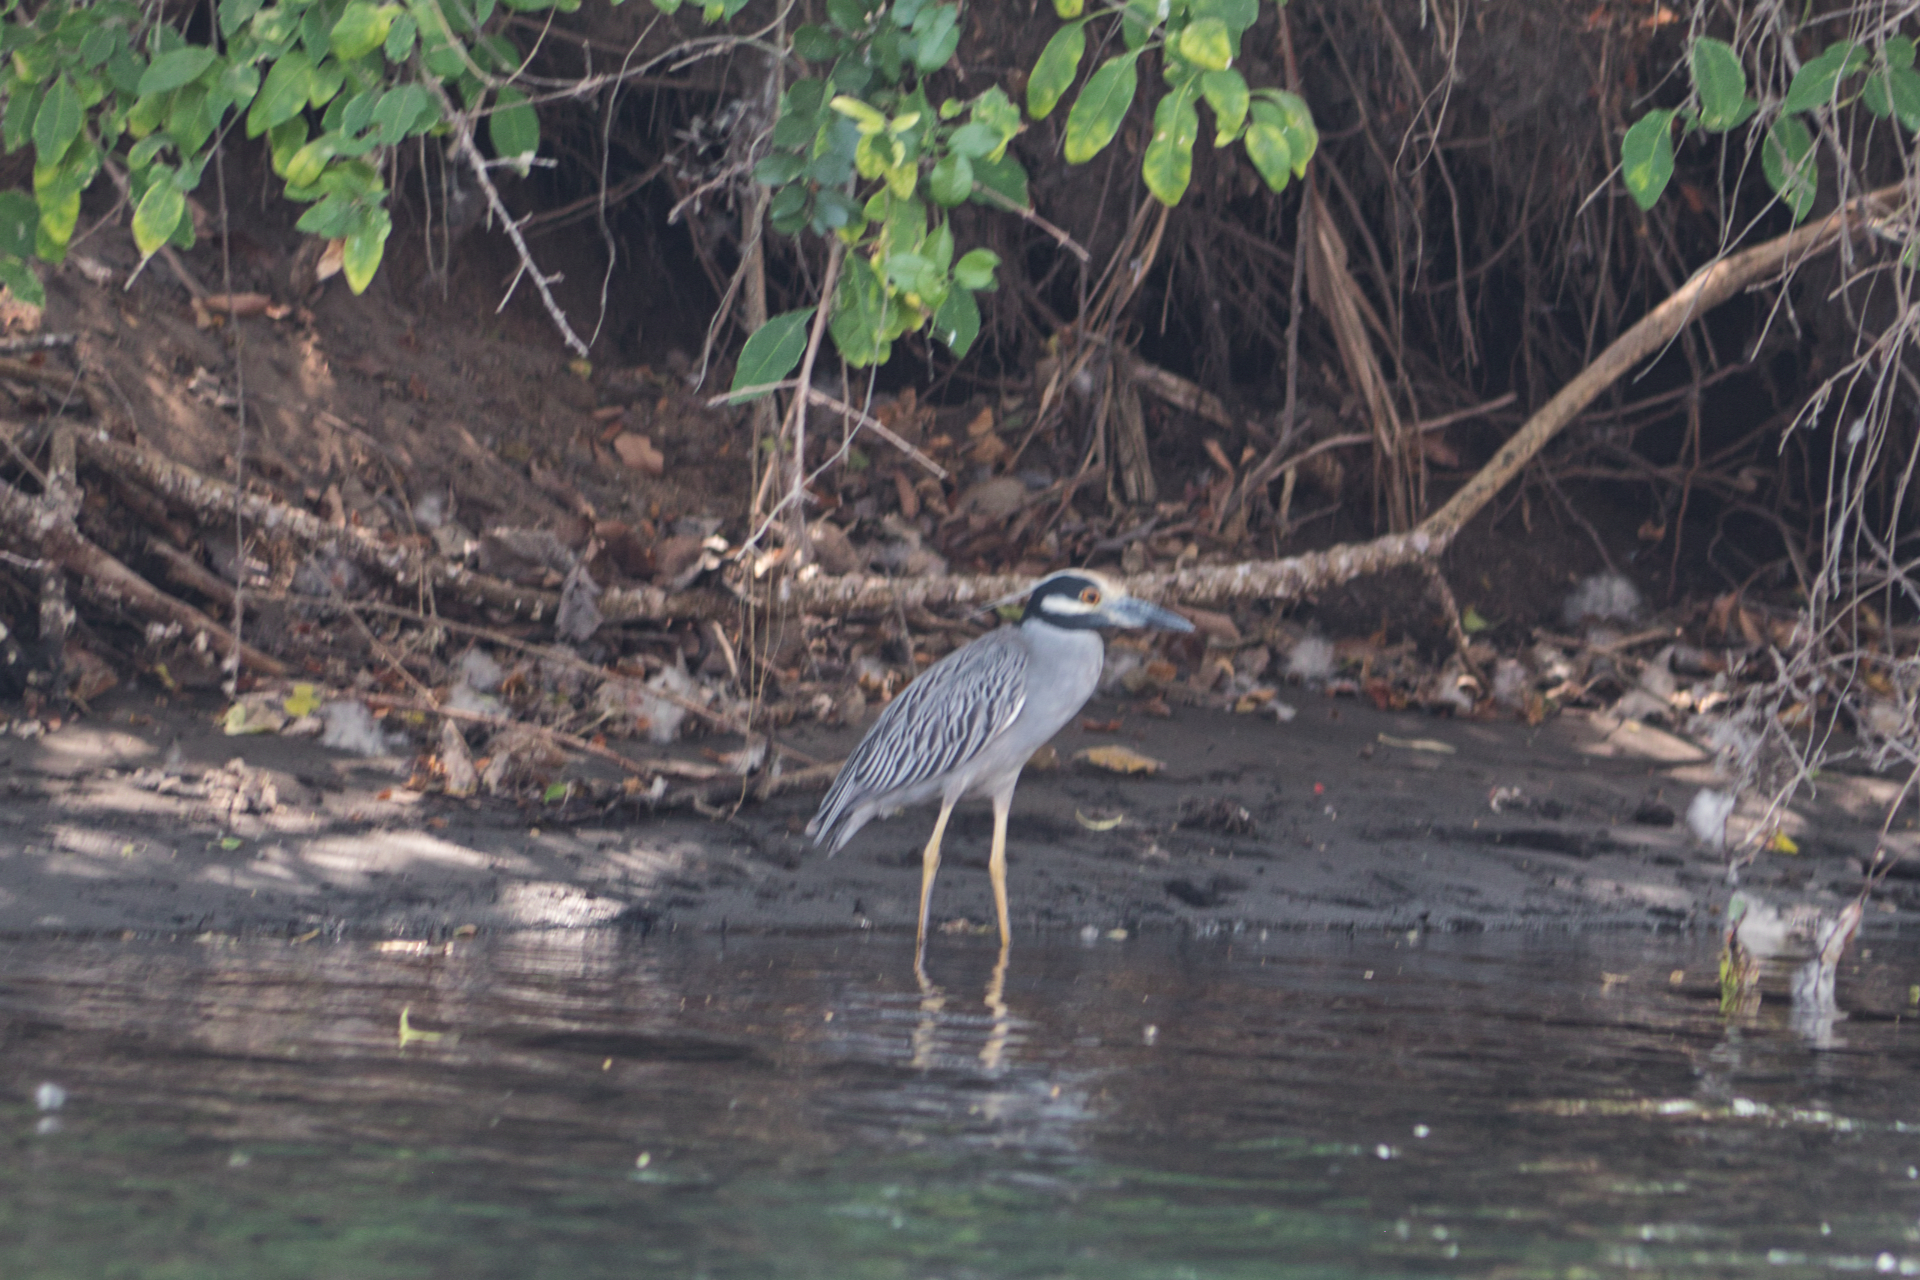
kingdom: Animalia
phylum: Chordata
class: Aves
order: Pelecaniformes
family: Ardeidae
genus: Nyctanassa
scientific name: Nyctanassa violacea
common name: Yellow-crowned night heron
